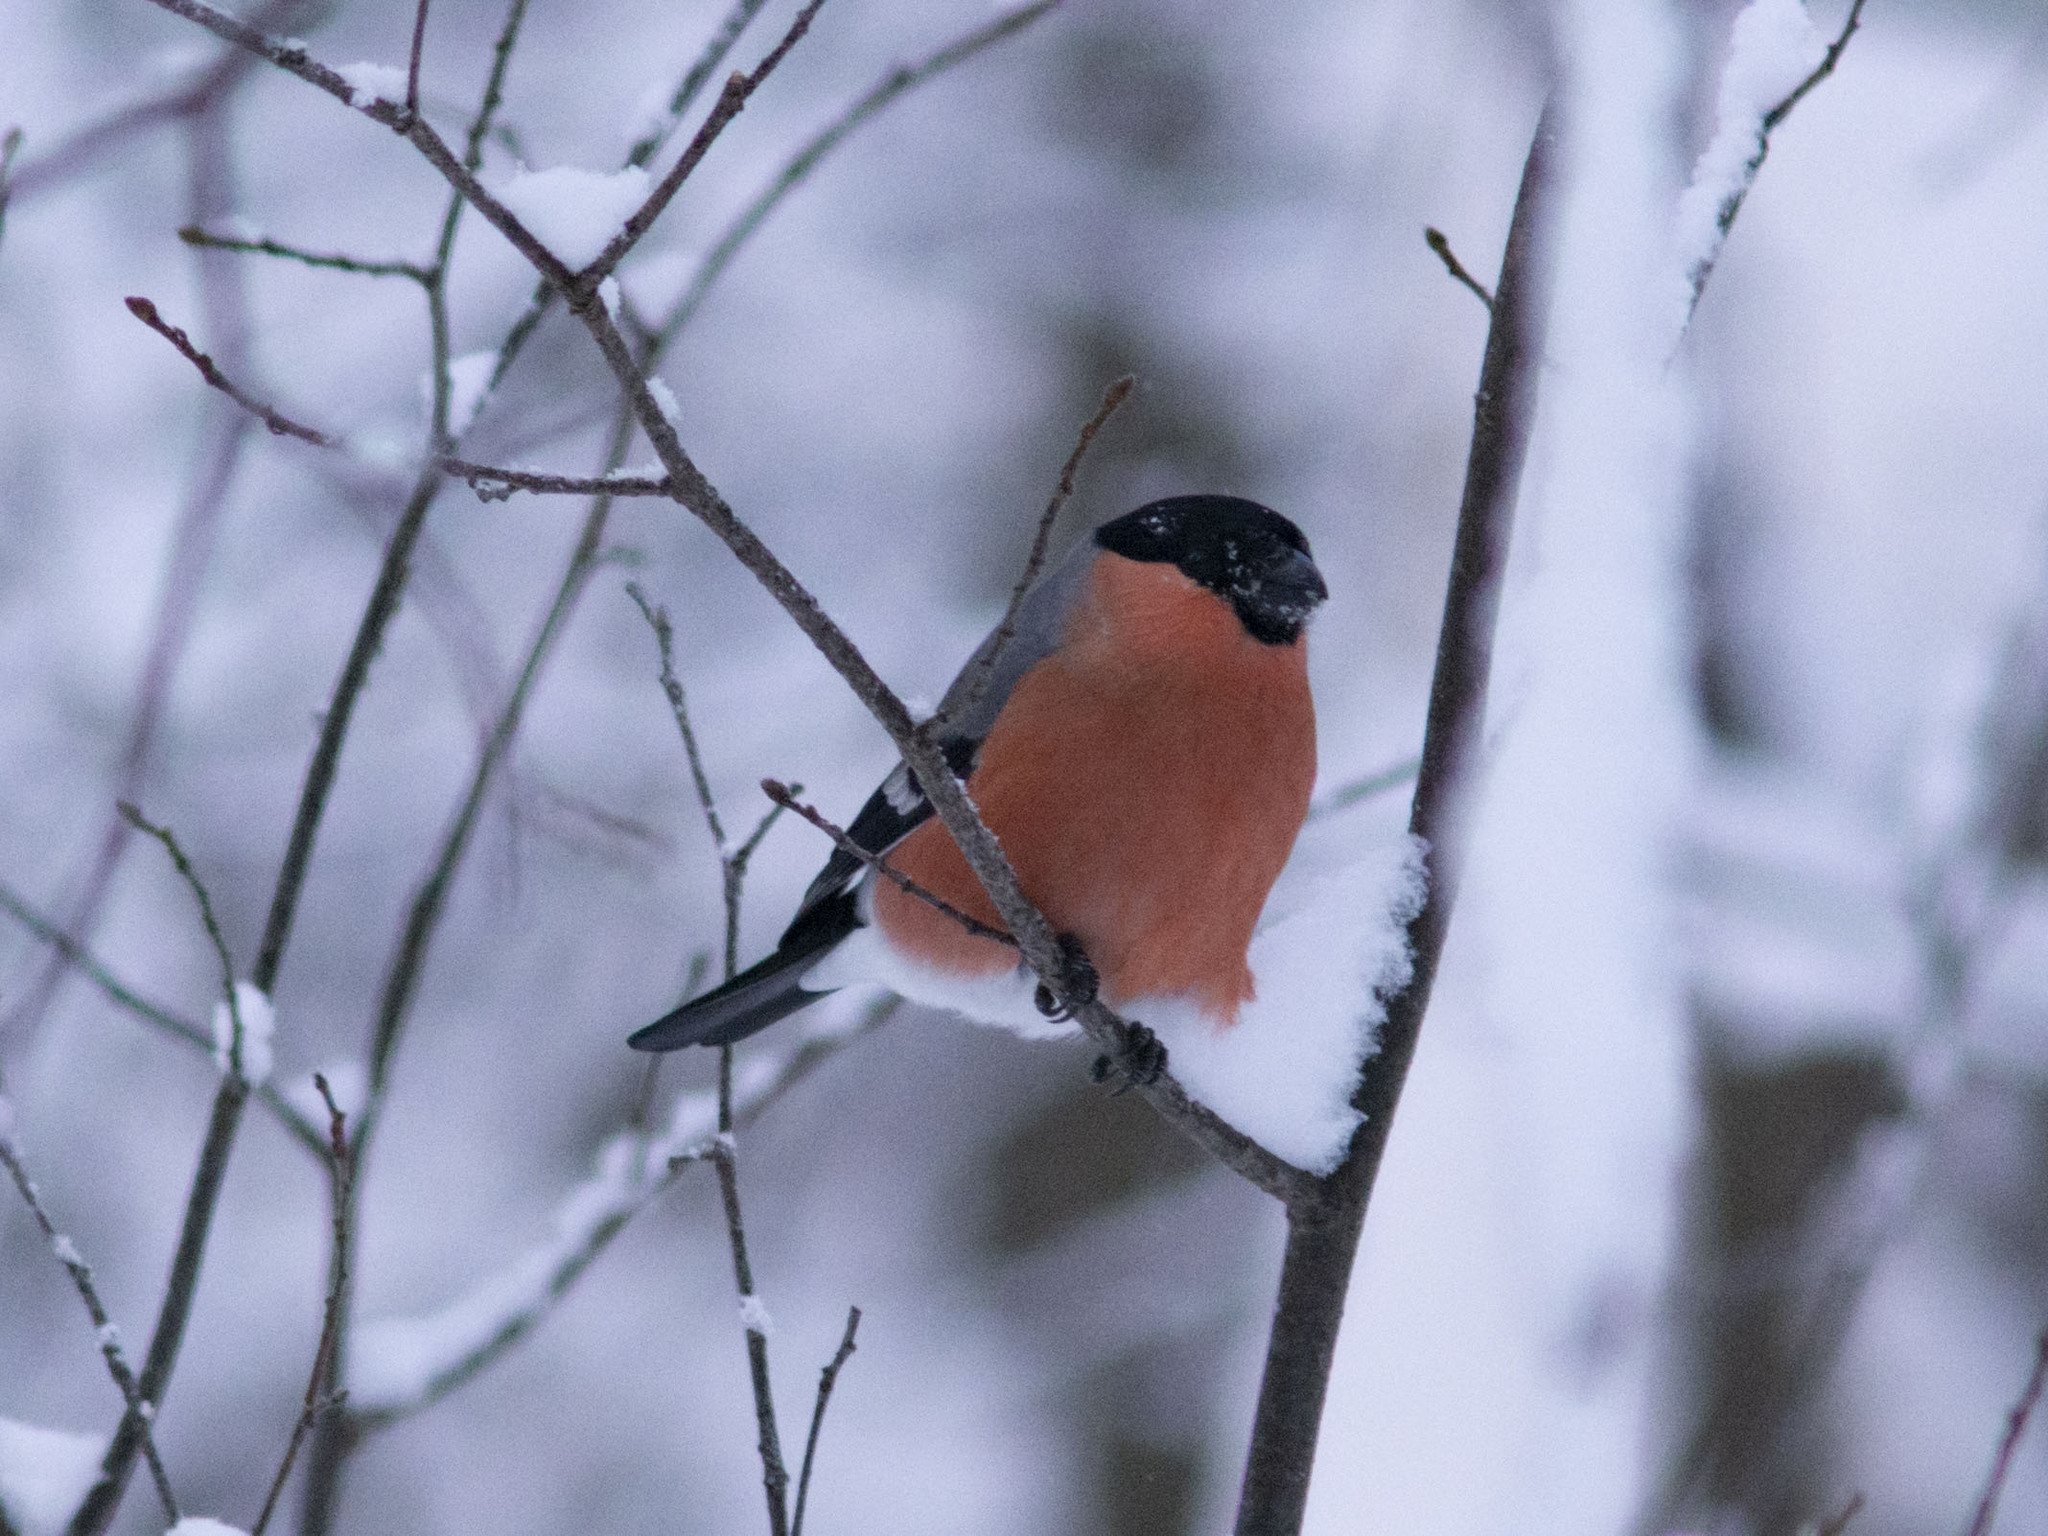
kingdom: Animalia
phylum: Chordata
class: Aves
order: Passeriformes
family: Fringillidae
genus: Pyrrhula
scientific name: Pyrrhula pyrrhula
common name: Eurasian bullfinch
